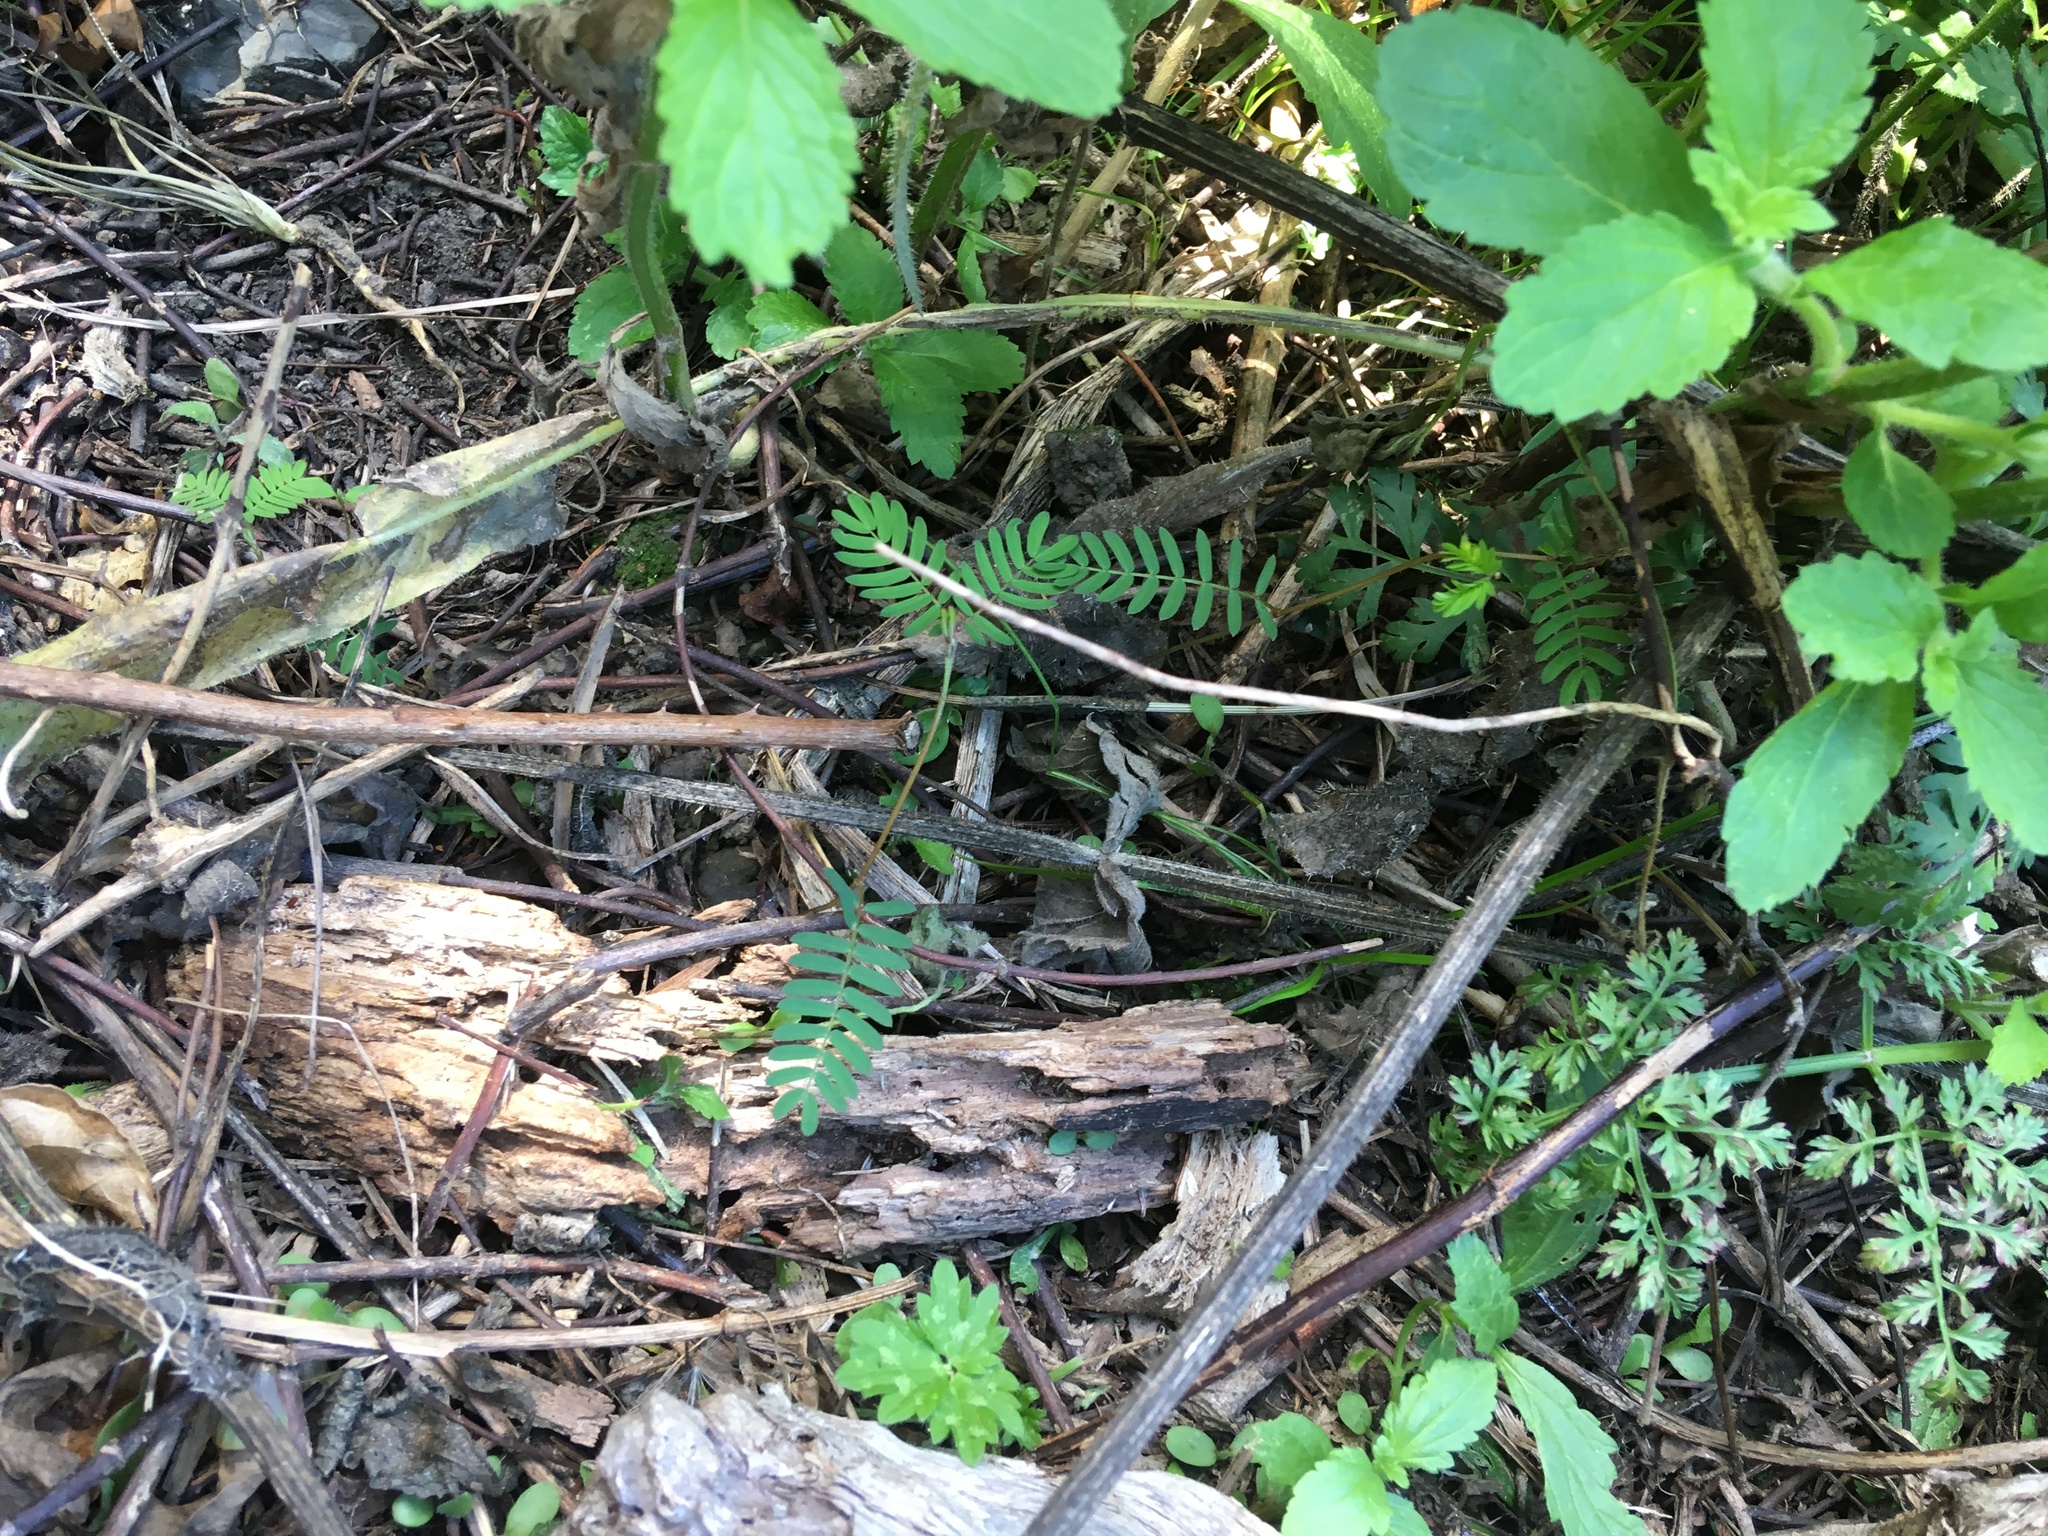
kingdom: Plantae
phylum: Tracheophyta
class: Magnoliopsida
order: Fabales
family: Fabaceae
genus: Paraserianthes
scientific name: Paraserianthes lophantha
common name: Plume albizia
